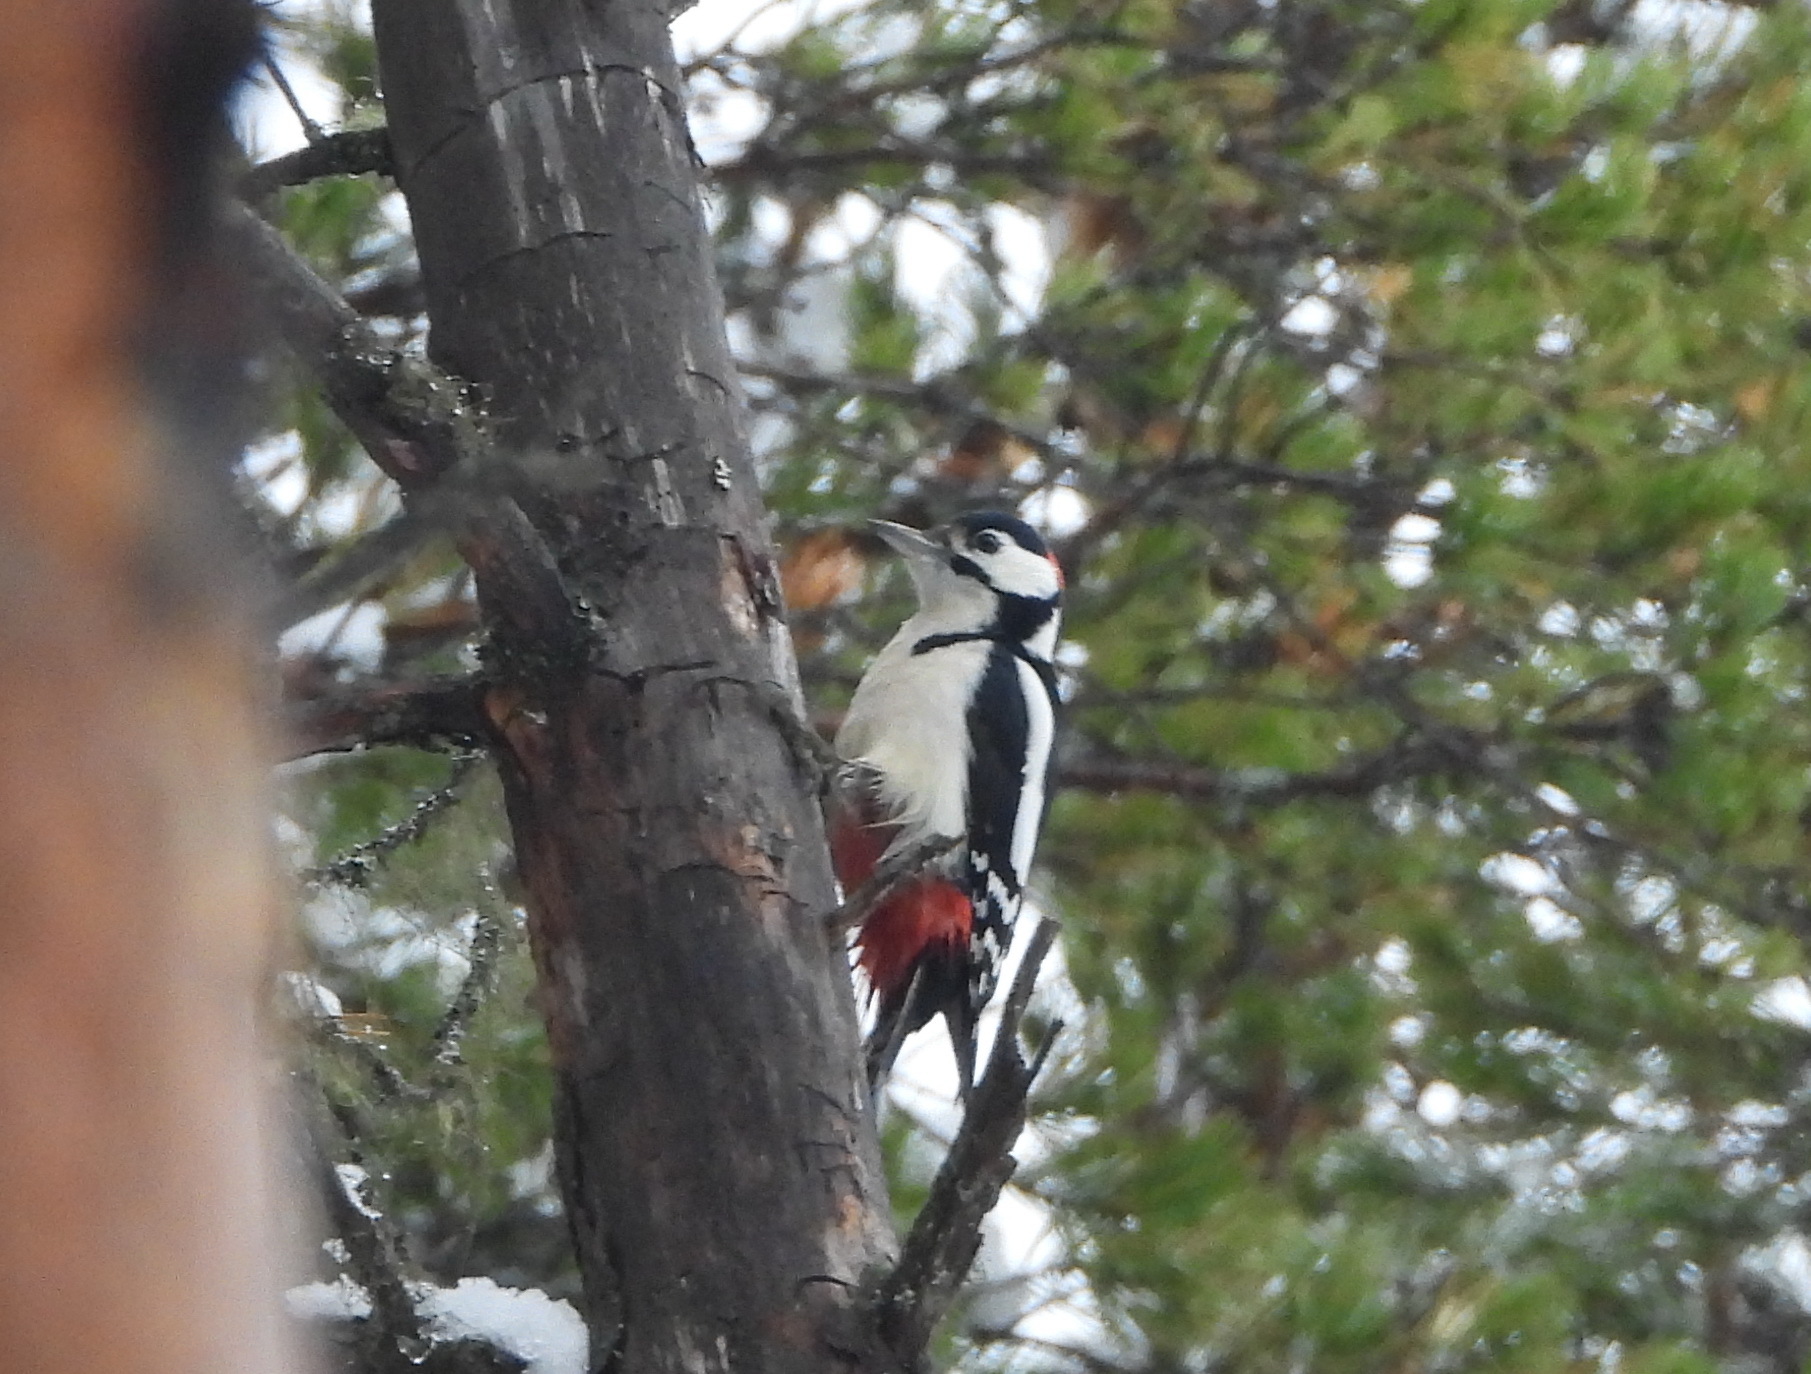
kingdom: Animalia
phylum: Chordata
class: Aves
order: Piciformes
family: Picidae
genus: Dendrocopos
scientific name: Dendrocopos major
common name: Great spotted woodpecker
